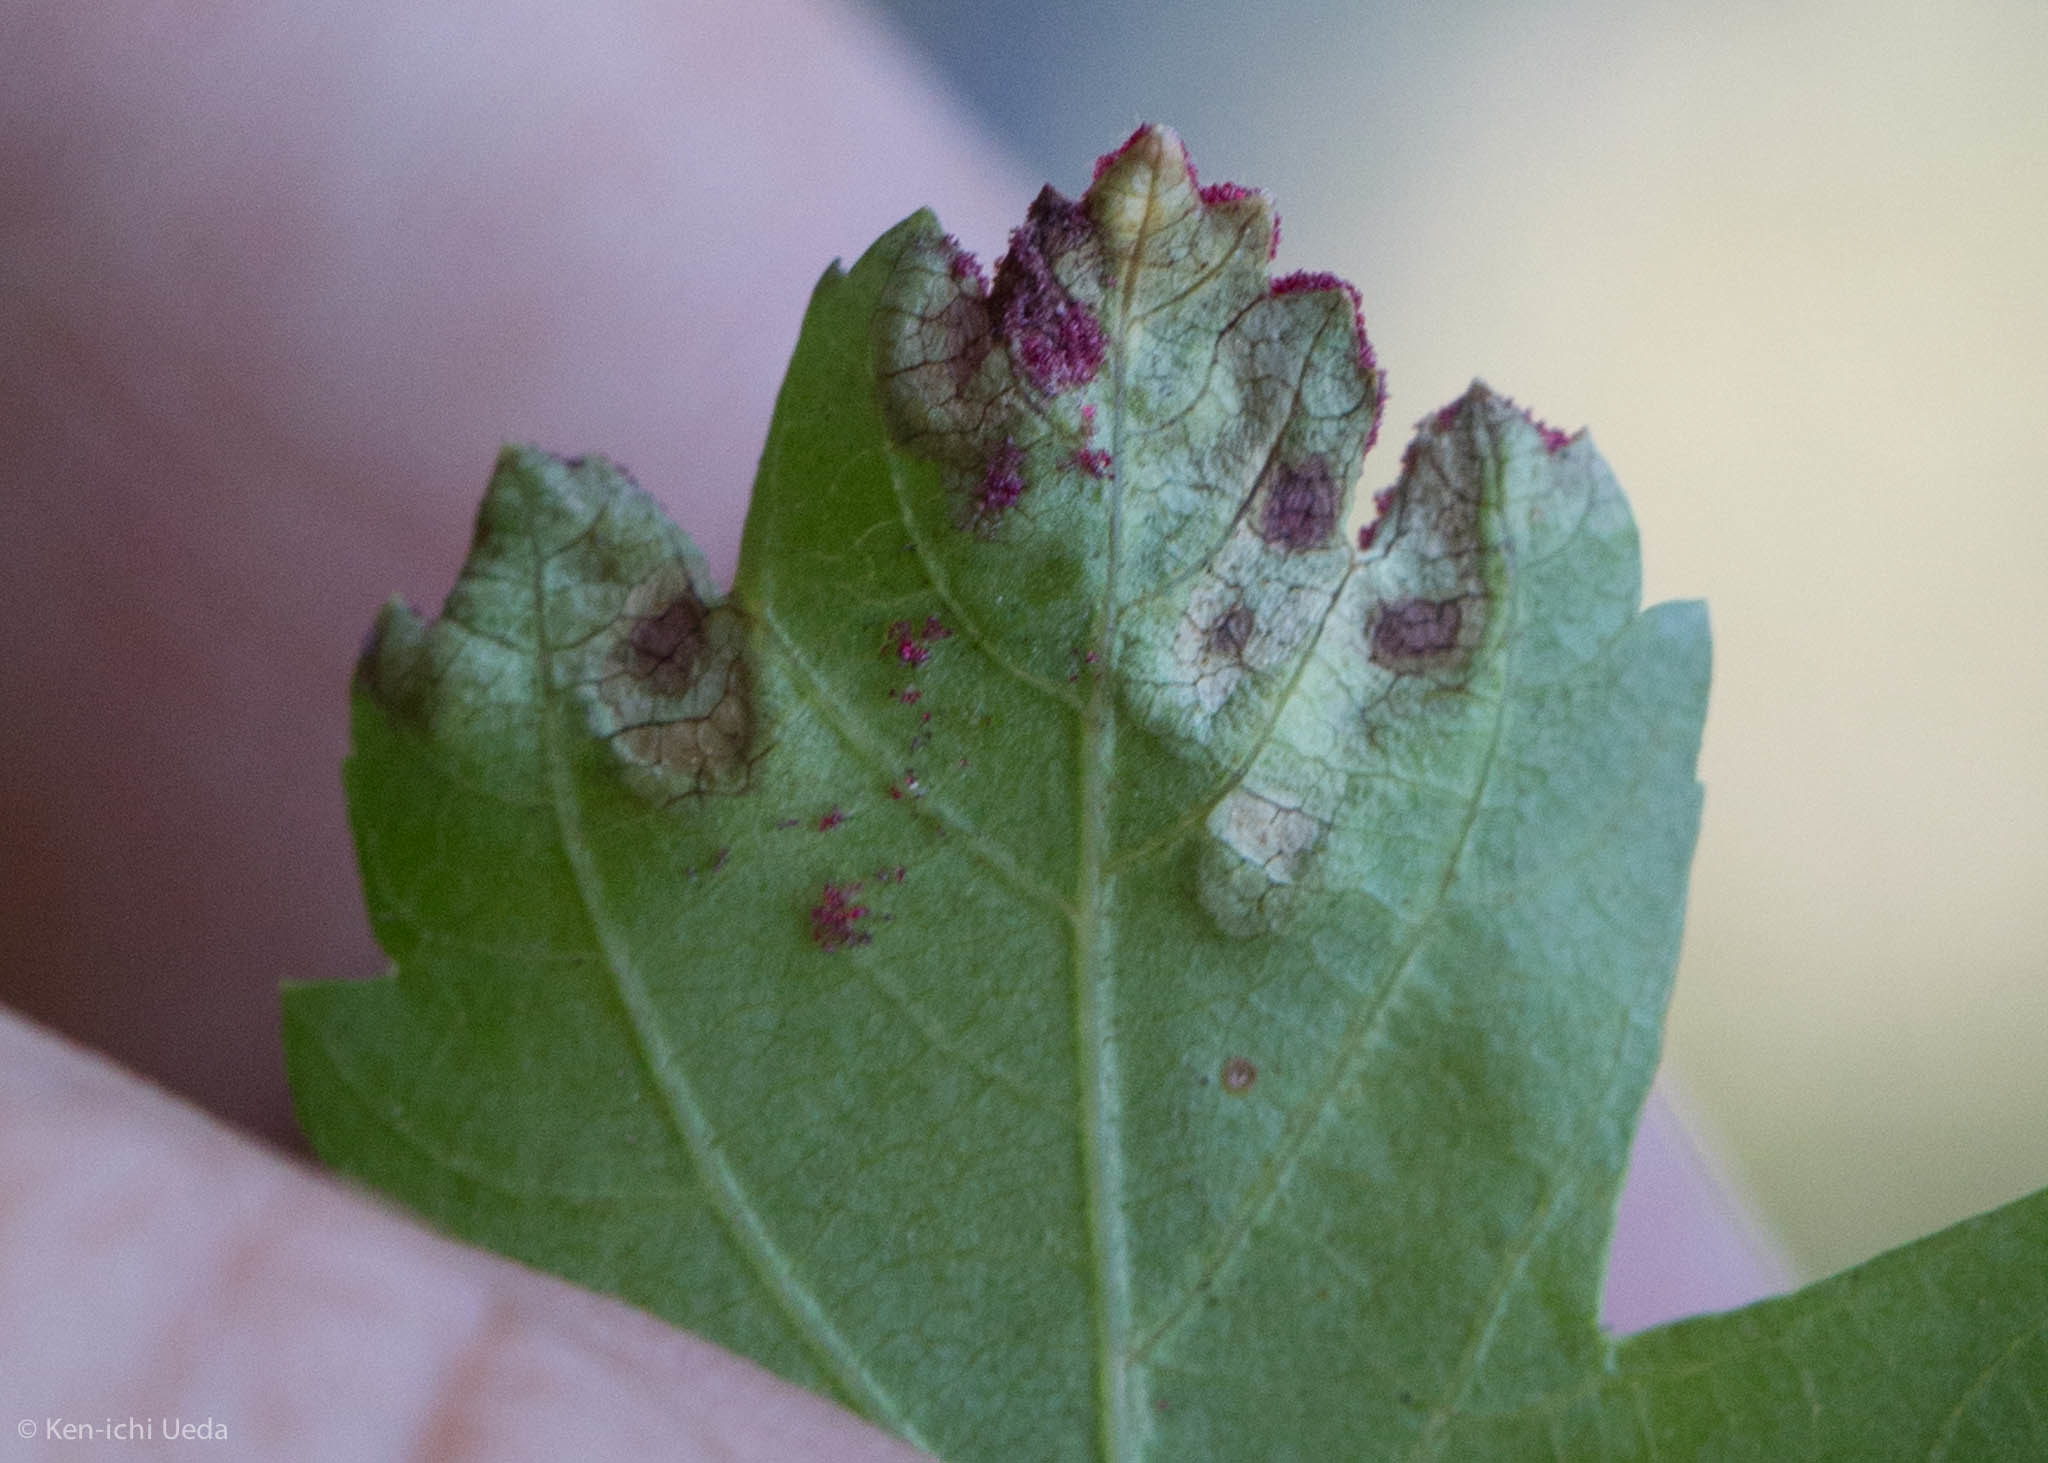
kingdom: Animalia
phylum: Arthropoda
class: Arachnida
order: Trombidiformes
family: Eriophyidae
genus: Aceria
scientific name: Aceria
